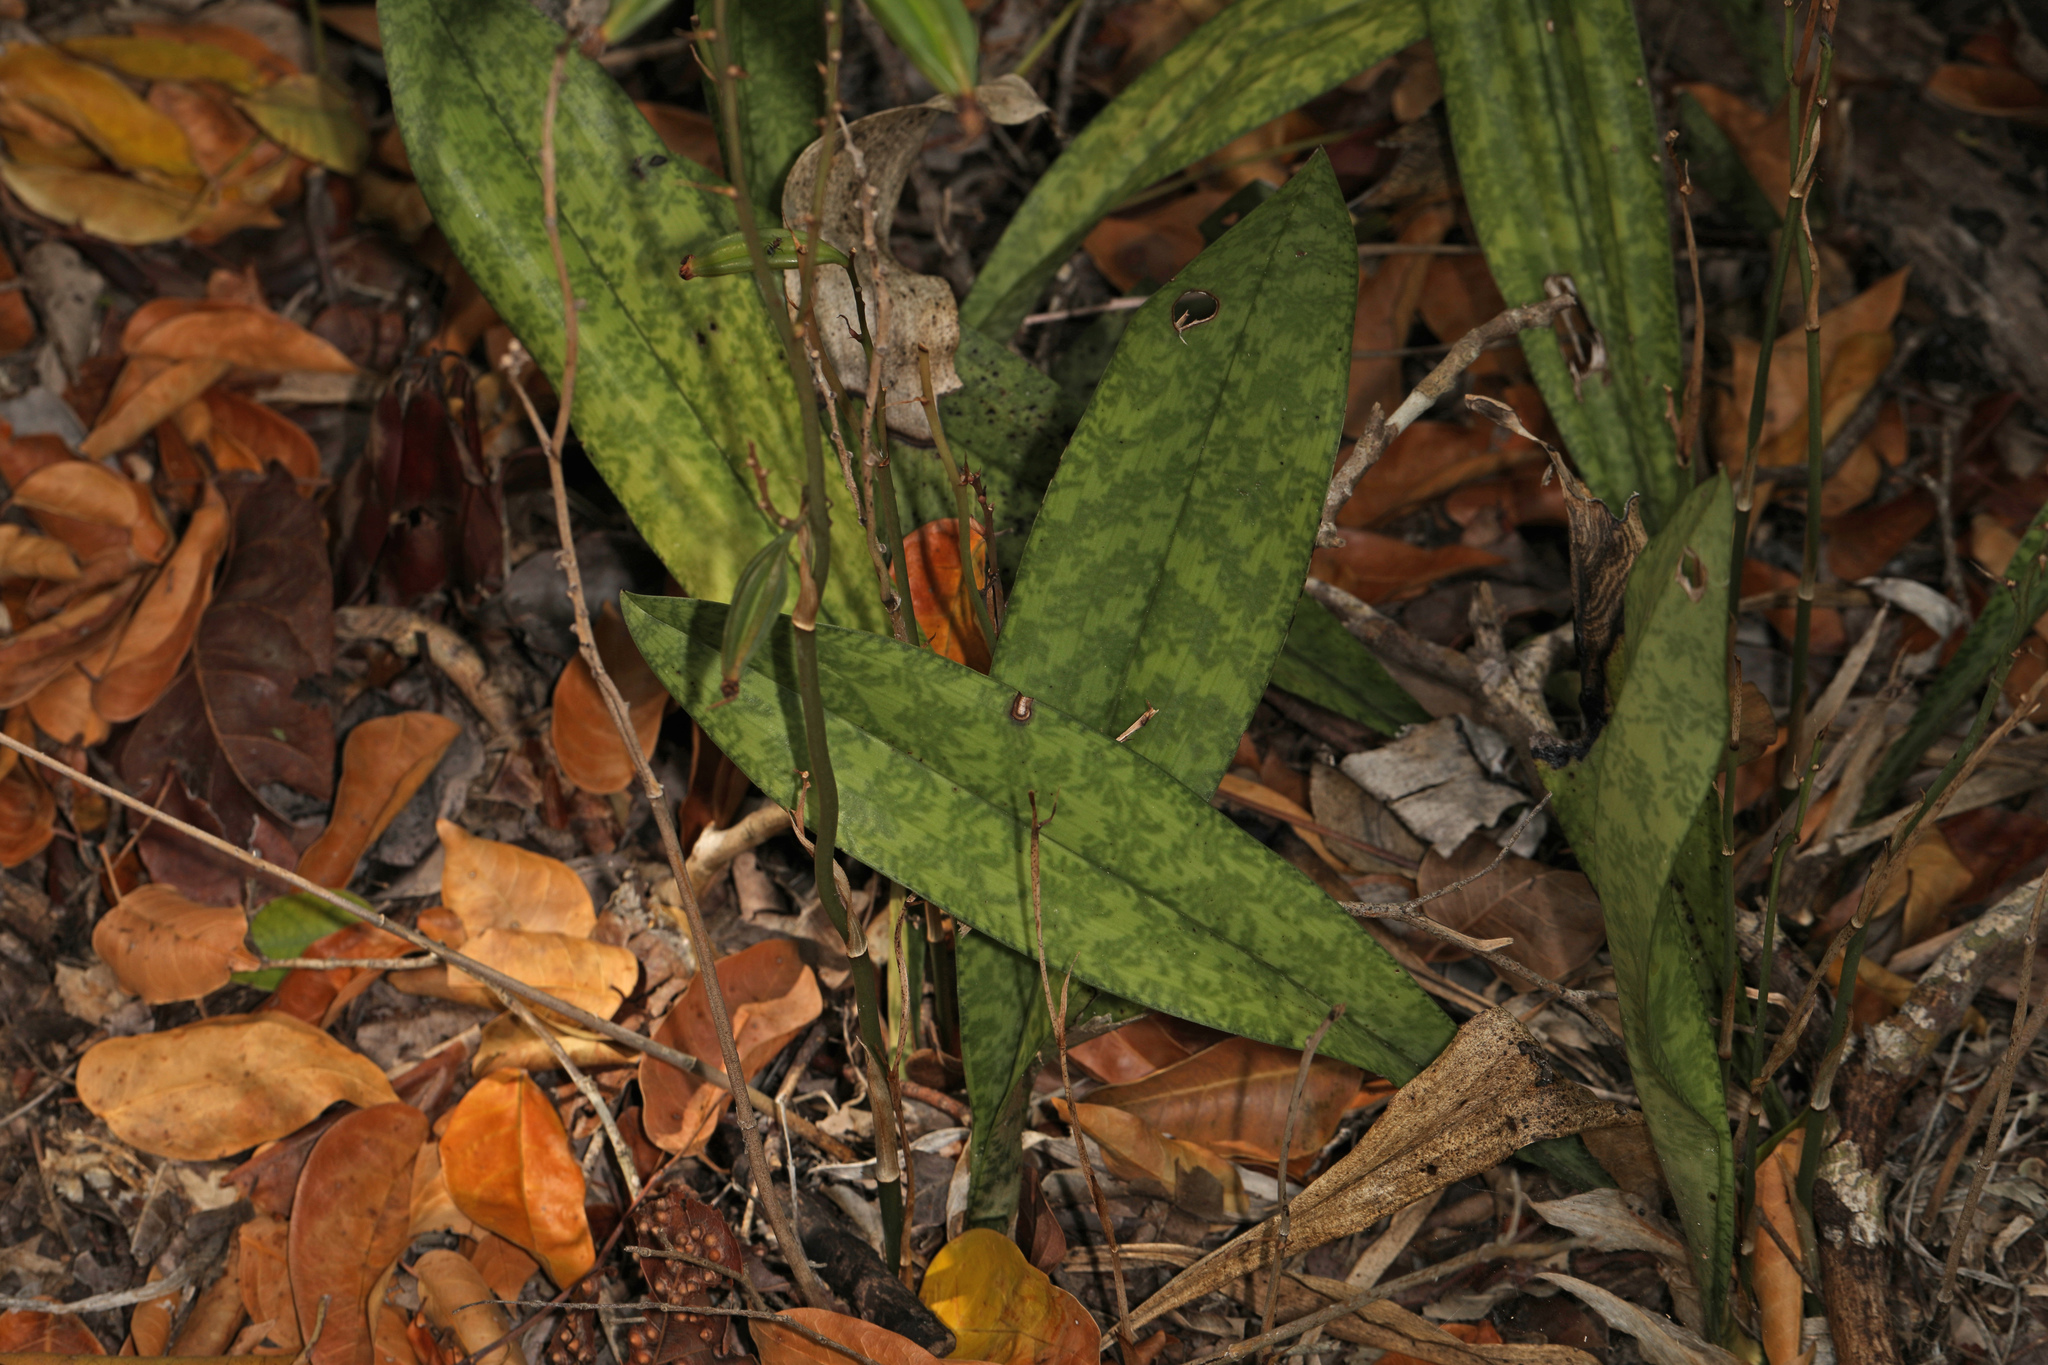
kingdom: Plantae
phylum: Tracheophyta
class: Liliopsida
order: Asparagales
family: Orchidaceae
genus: Eulophia
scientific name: Eulophia maculata
